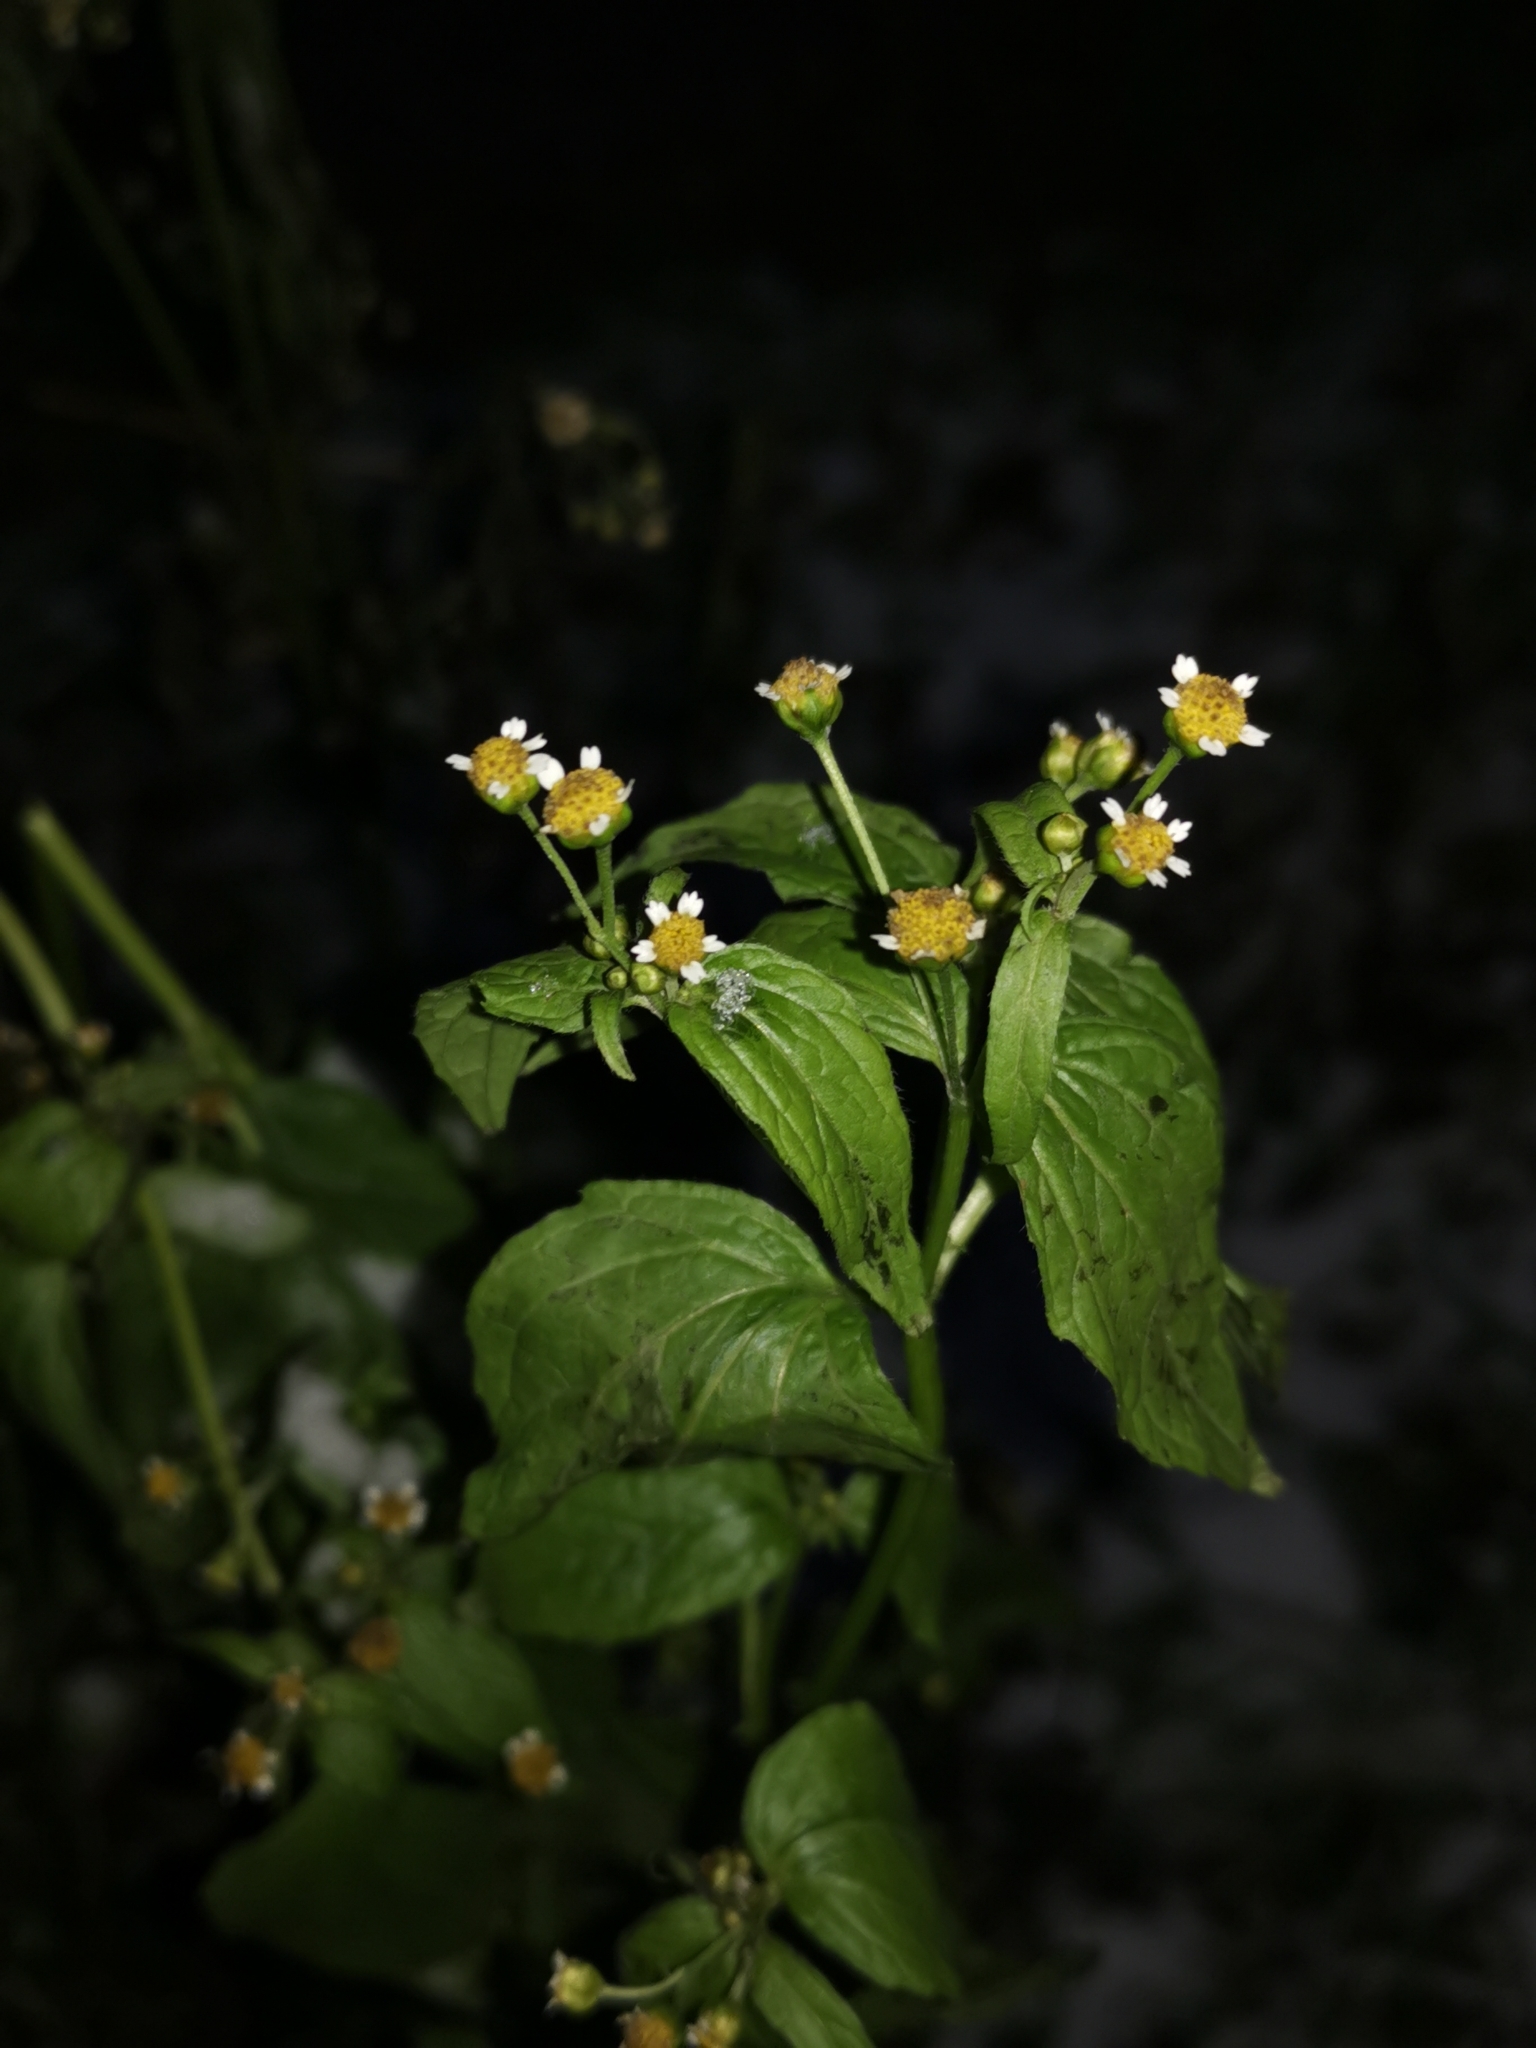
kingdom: Plantae
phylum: Tracheophyta
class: Magnoliopsida
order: Asterales
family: Asteraceae
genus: Galinsoga
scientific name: Galinsoga parviflora
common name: Gallant soldier
